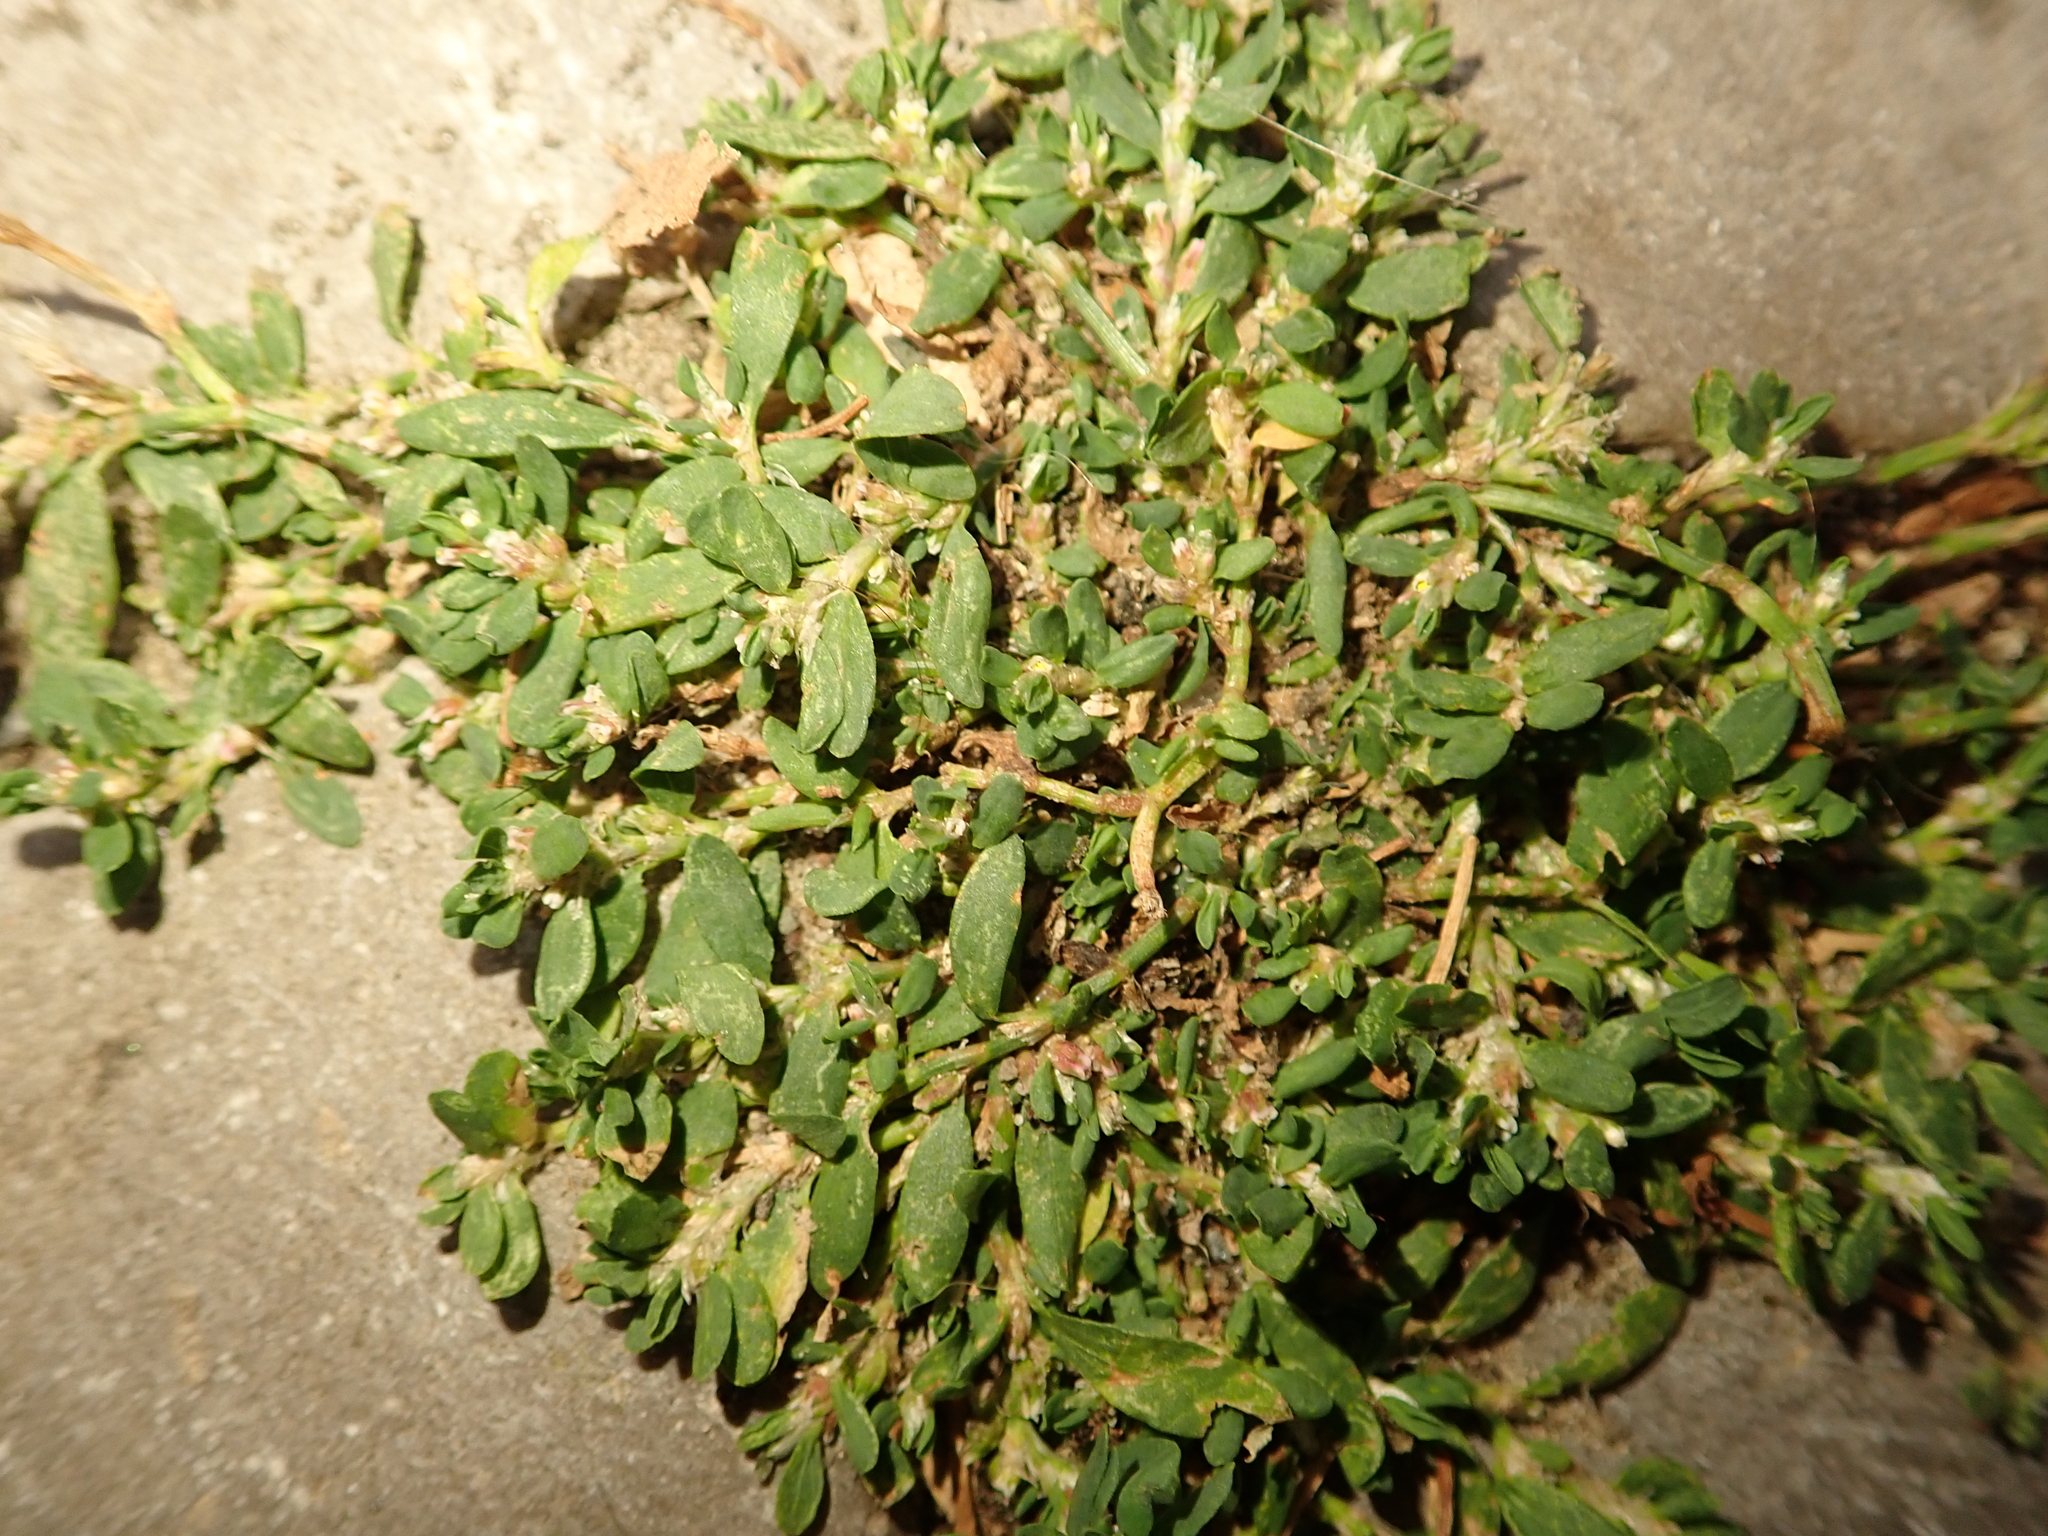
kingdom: Plantae
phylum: Tracheophyta
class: Magnoliopsida
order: Caryophyllales
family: Polygonaceae
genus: Polygonum
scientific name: Polygonum aviculare
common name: Prostrate knotweed
